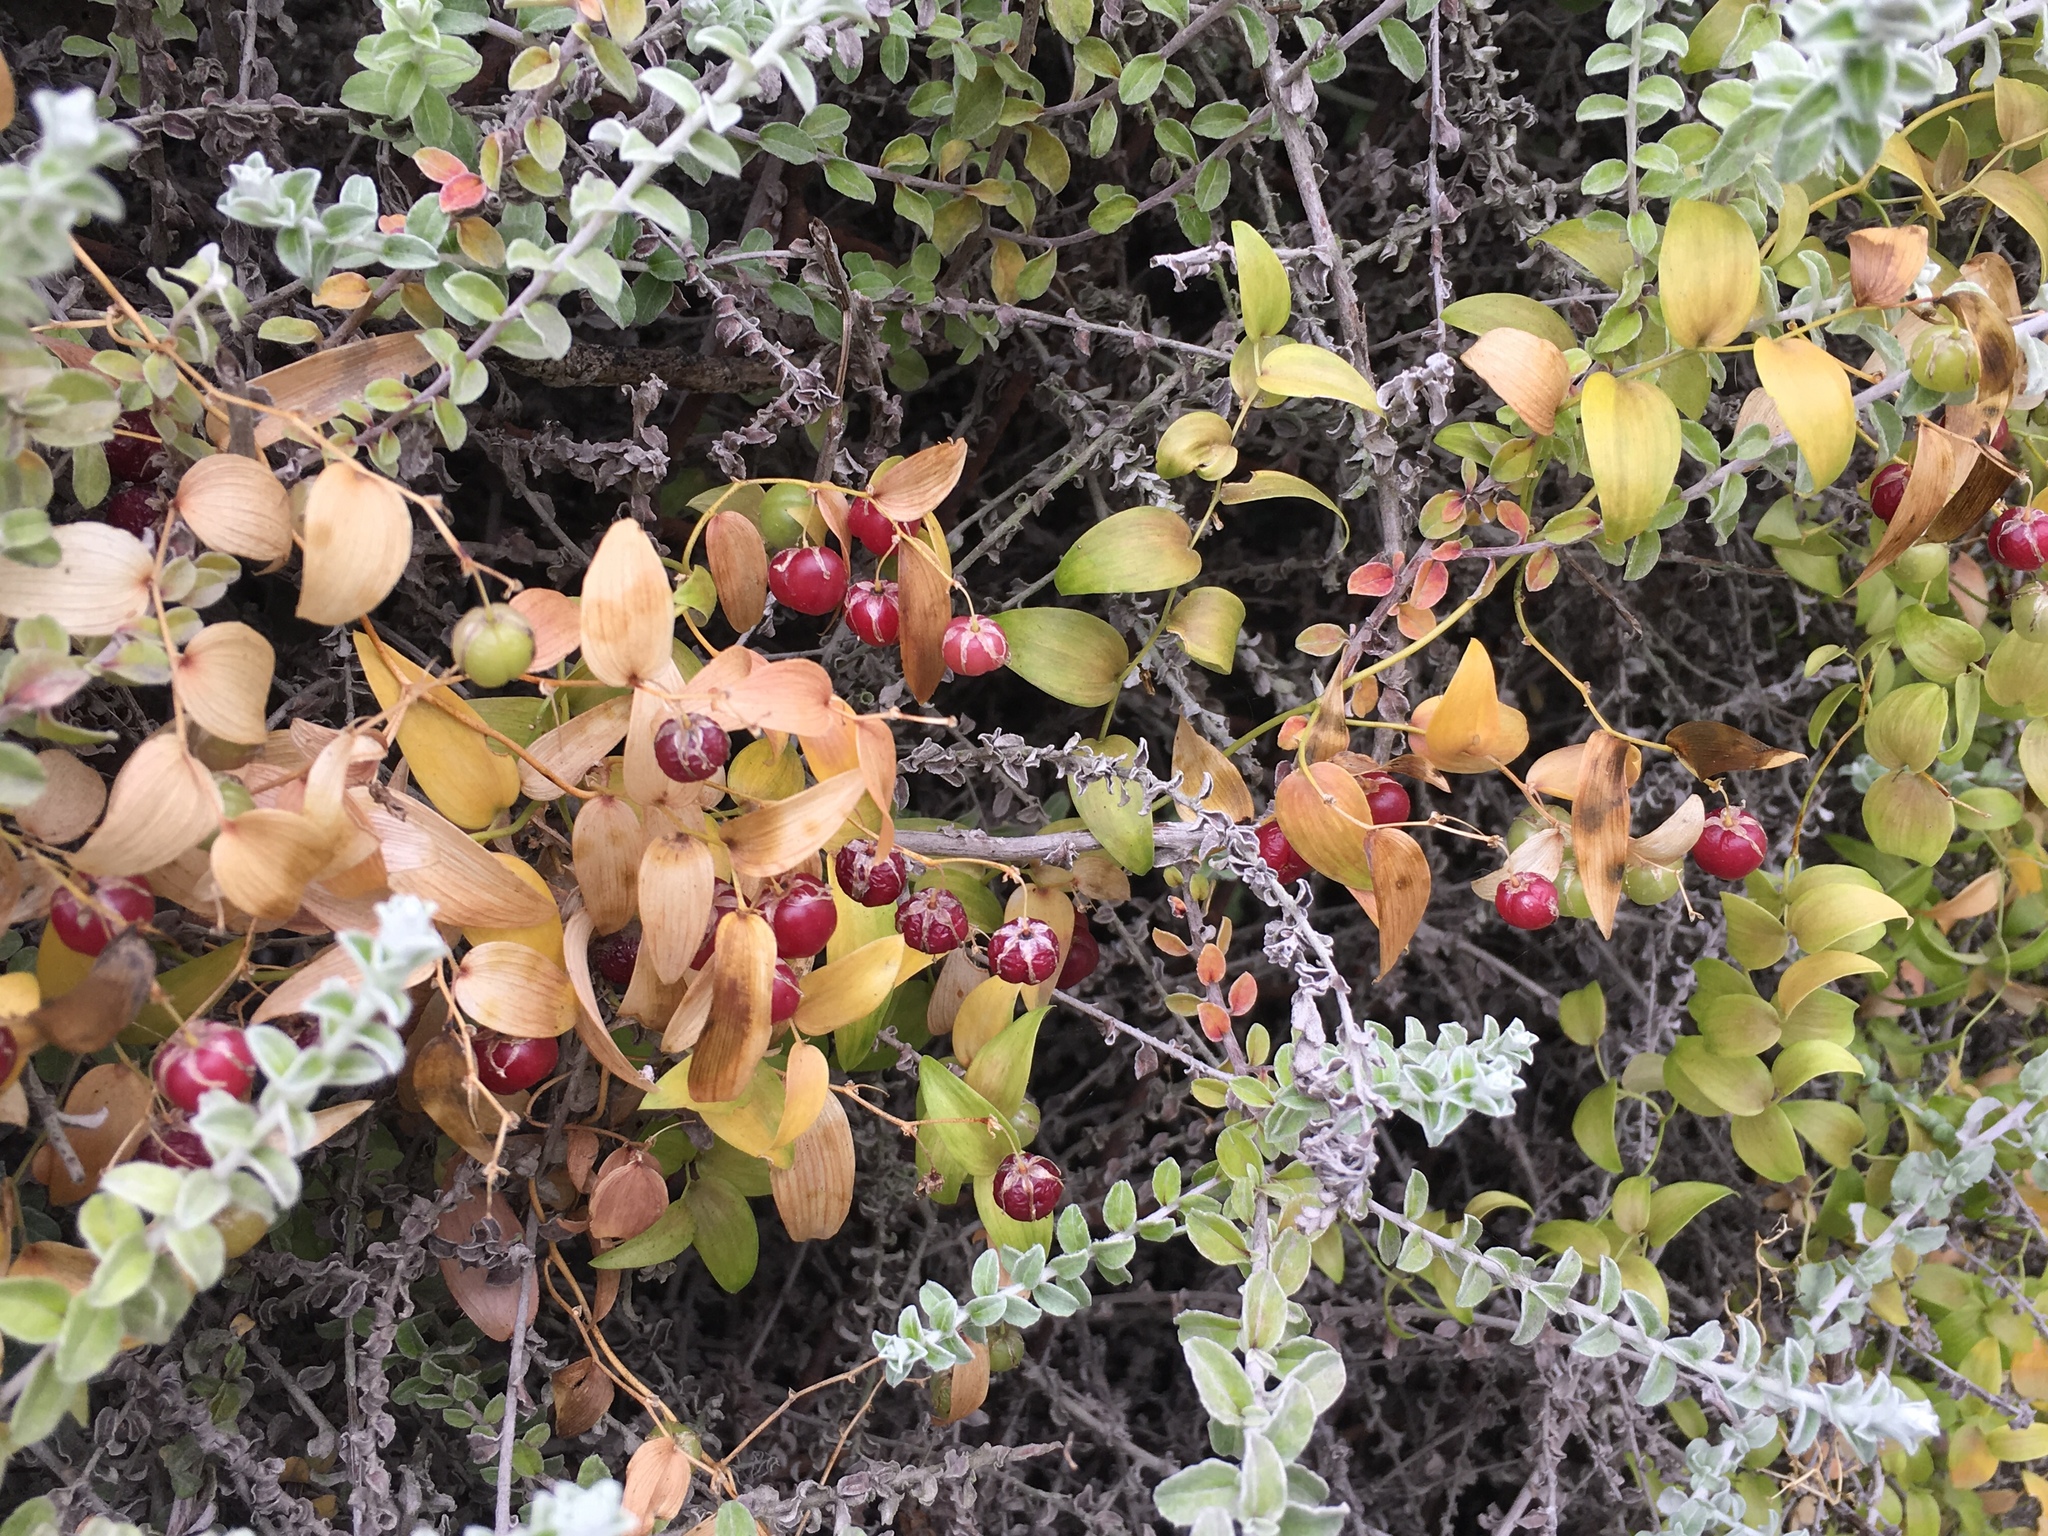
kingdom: Plantae
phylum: Tracheophyta
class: Liliopsida
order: Asparagales
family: Asparagaceae
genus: Asparagus
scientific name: Asparagus asparagoides
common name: African asparagus fern
